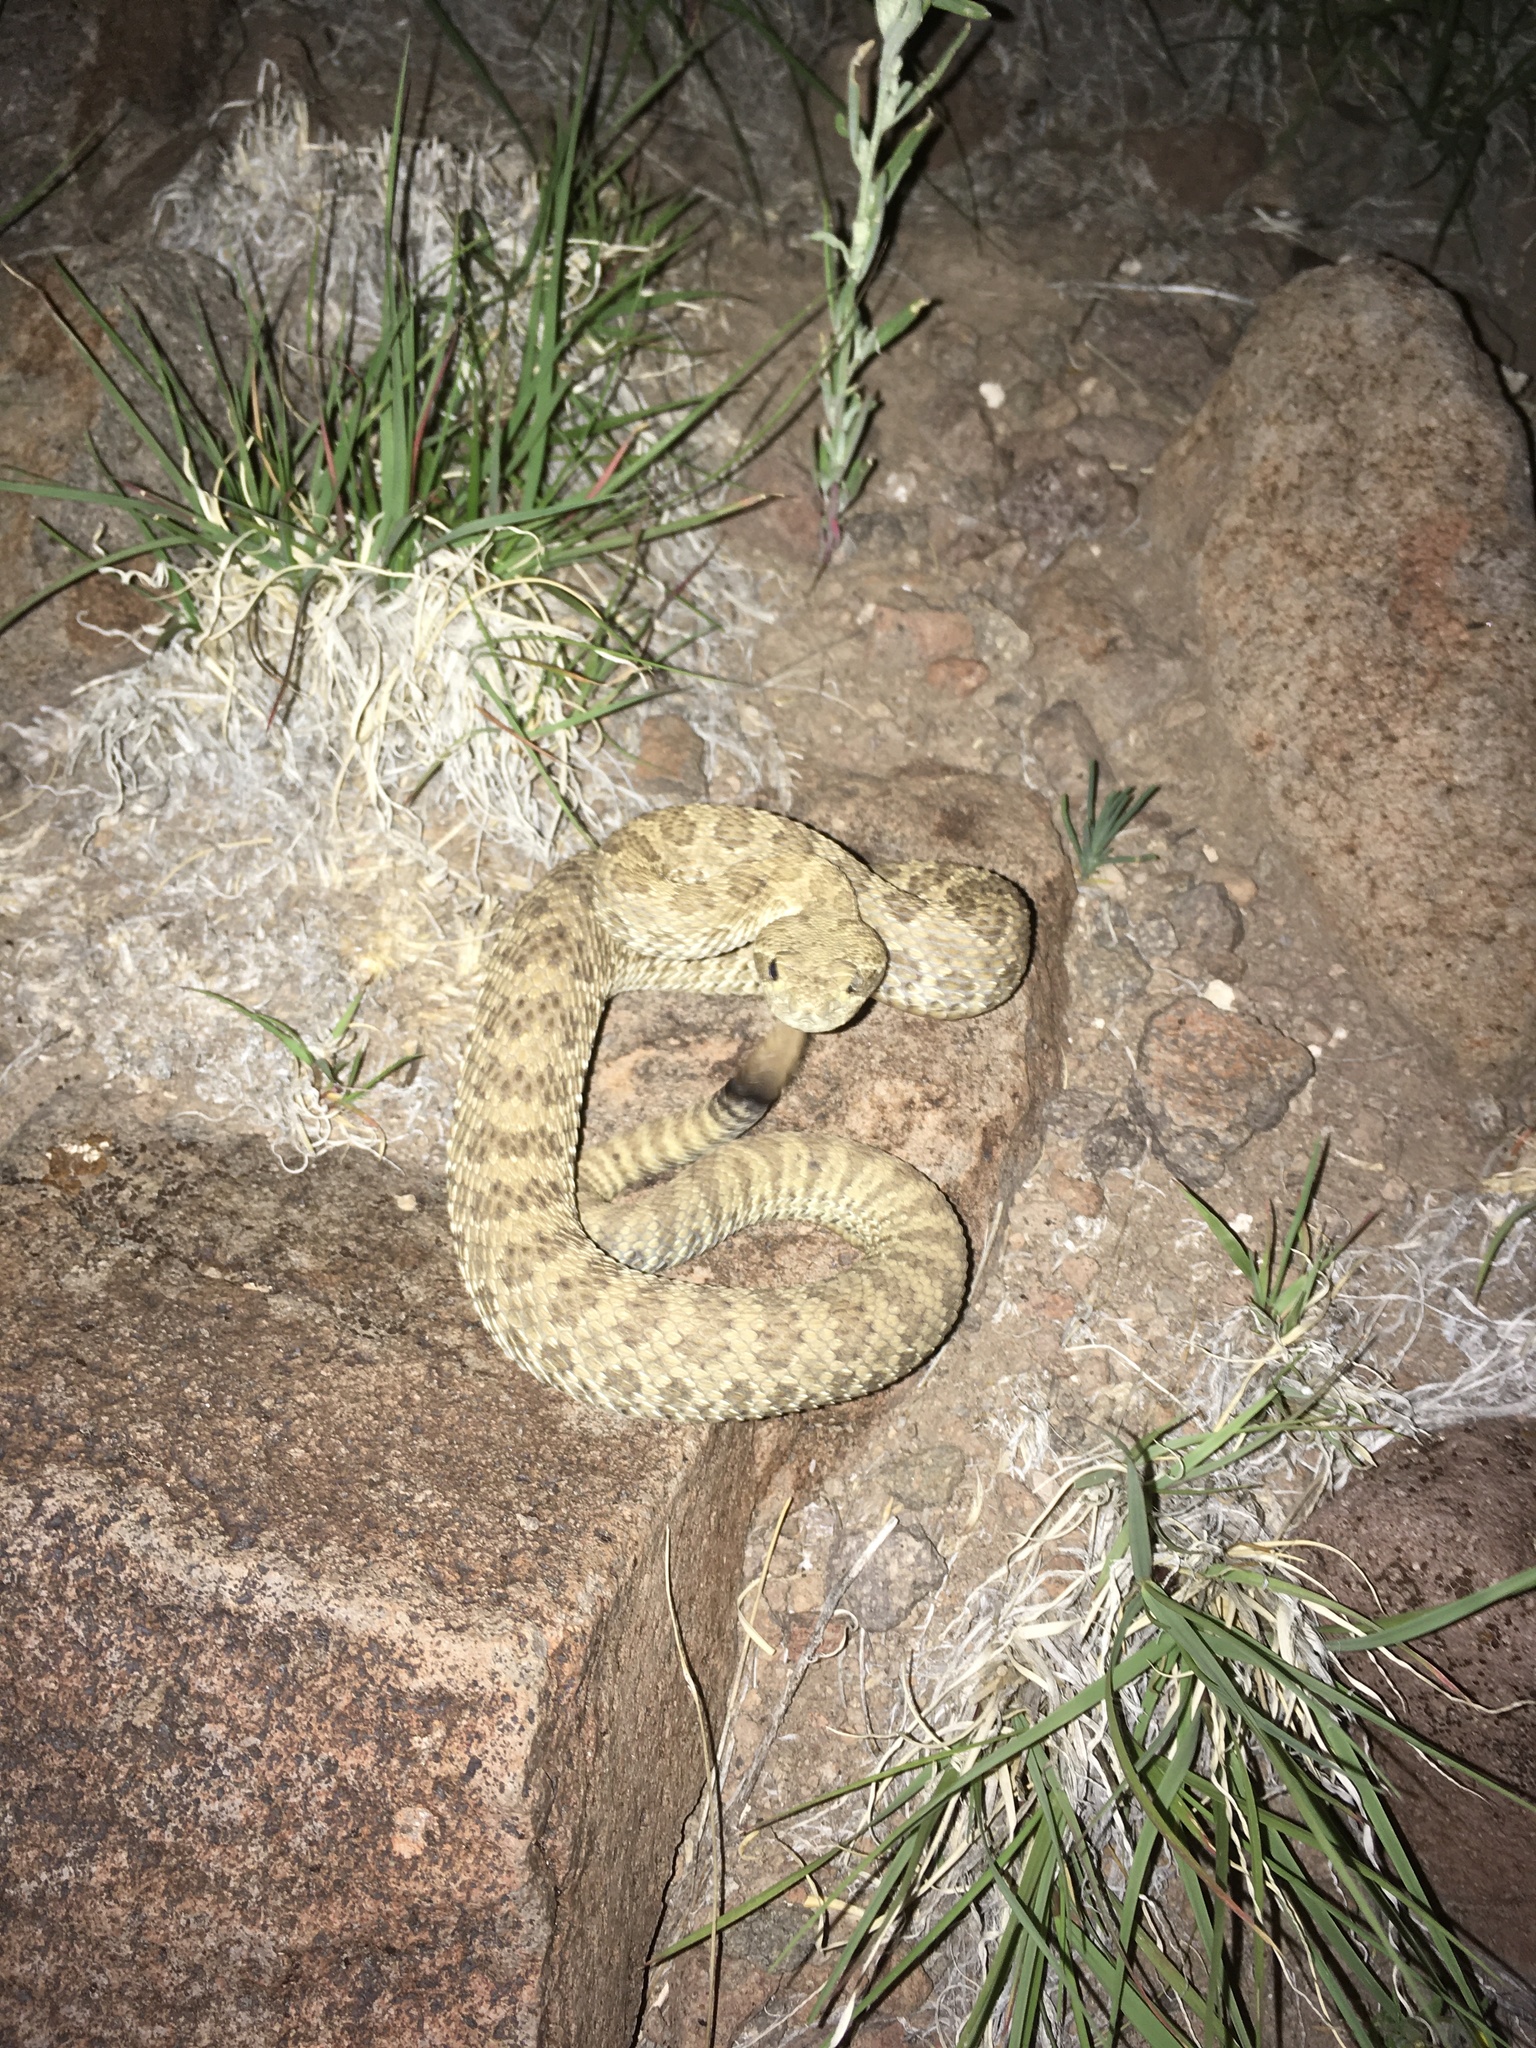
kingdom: Animalia
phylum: Chordata
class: Squamata
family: Viperidae
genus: Crotalus
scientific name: Crotalus viridis
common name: Prairie rattlesnake
